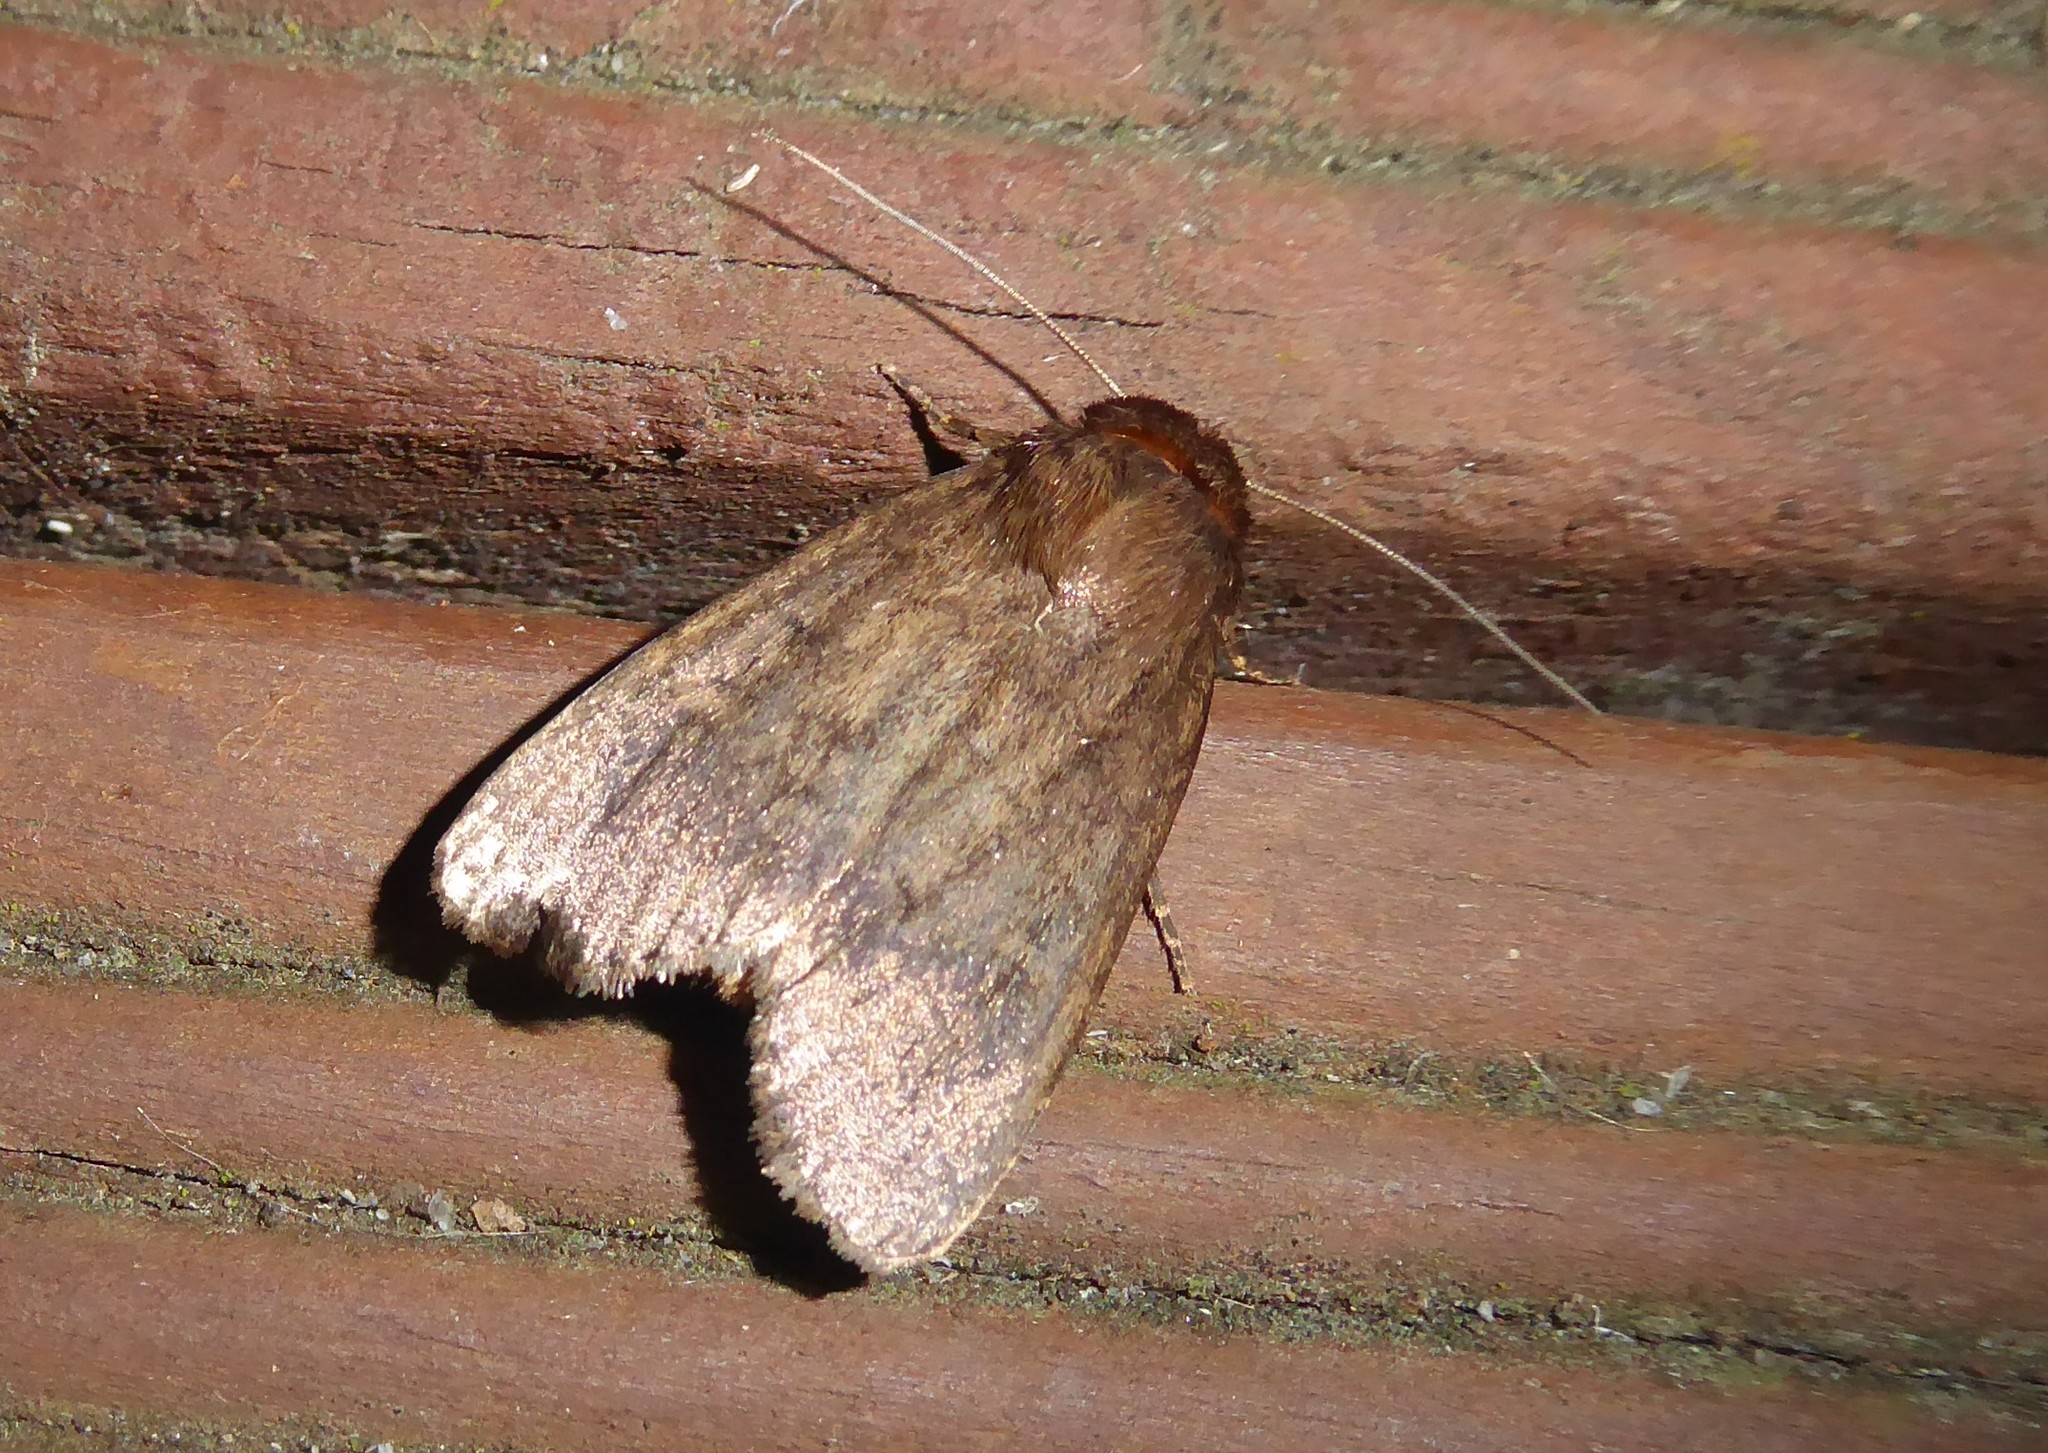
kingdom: Animalia
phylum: Arthropoda
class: Insecta
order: Lepidoptera
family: Noctuidae
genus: Bityla
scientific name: Bityla defigurata
